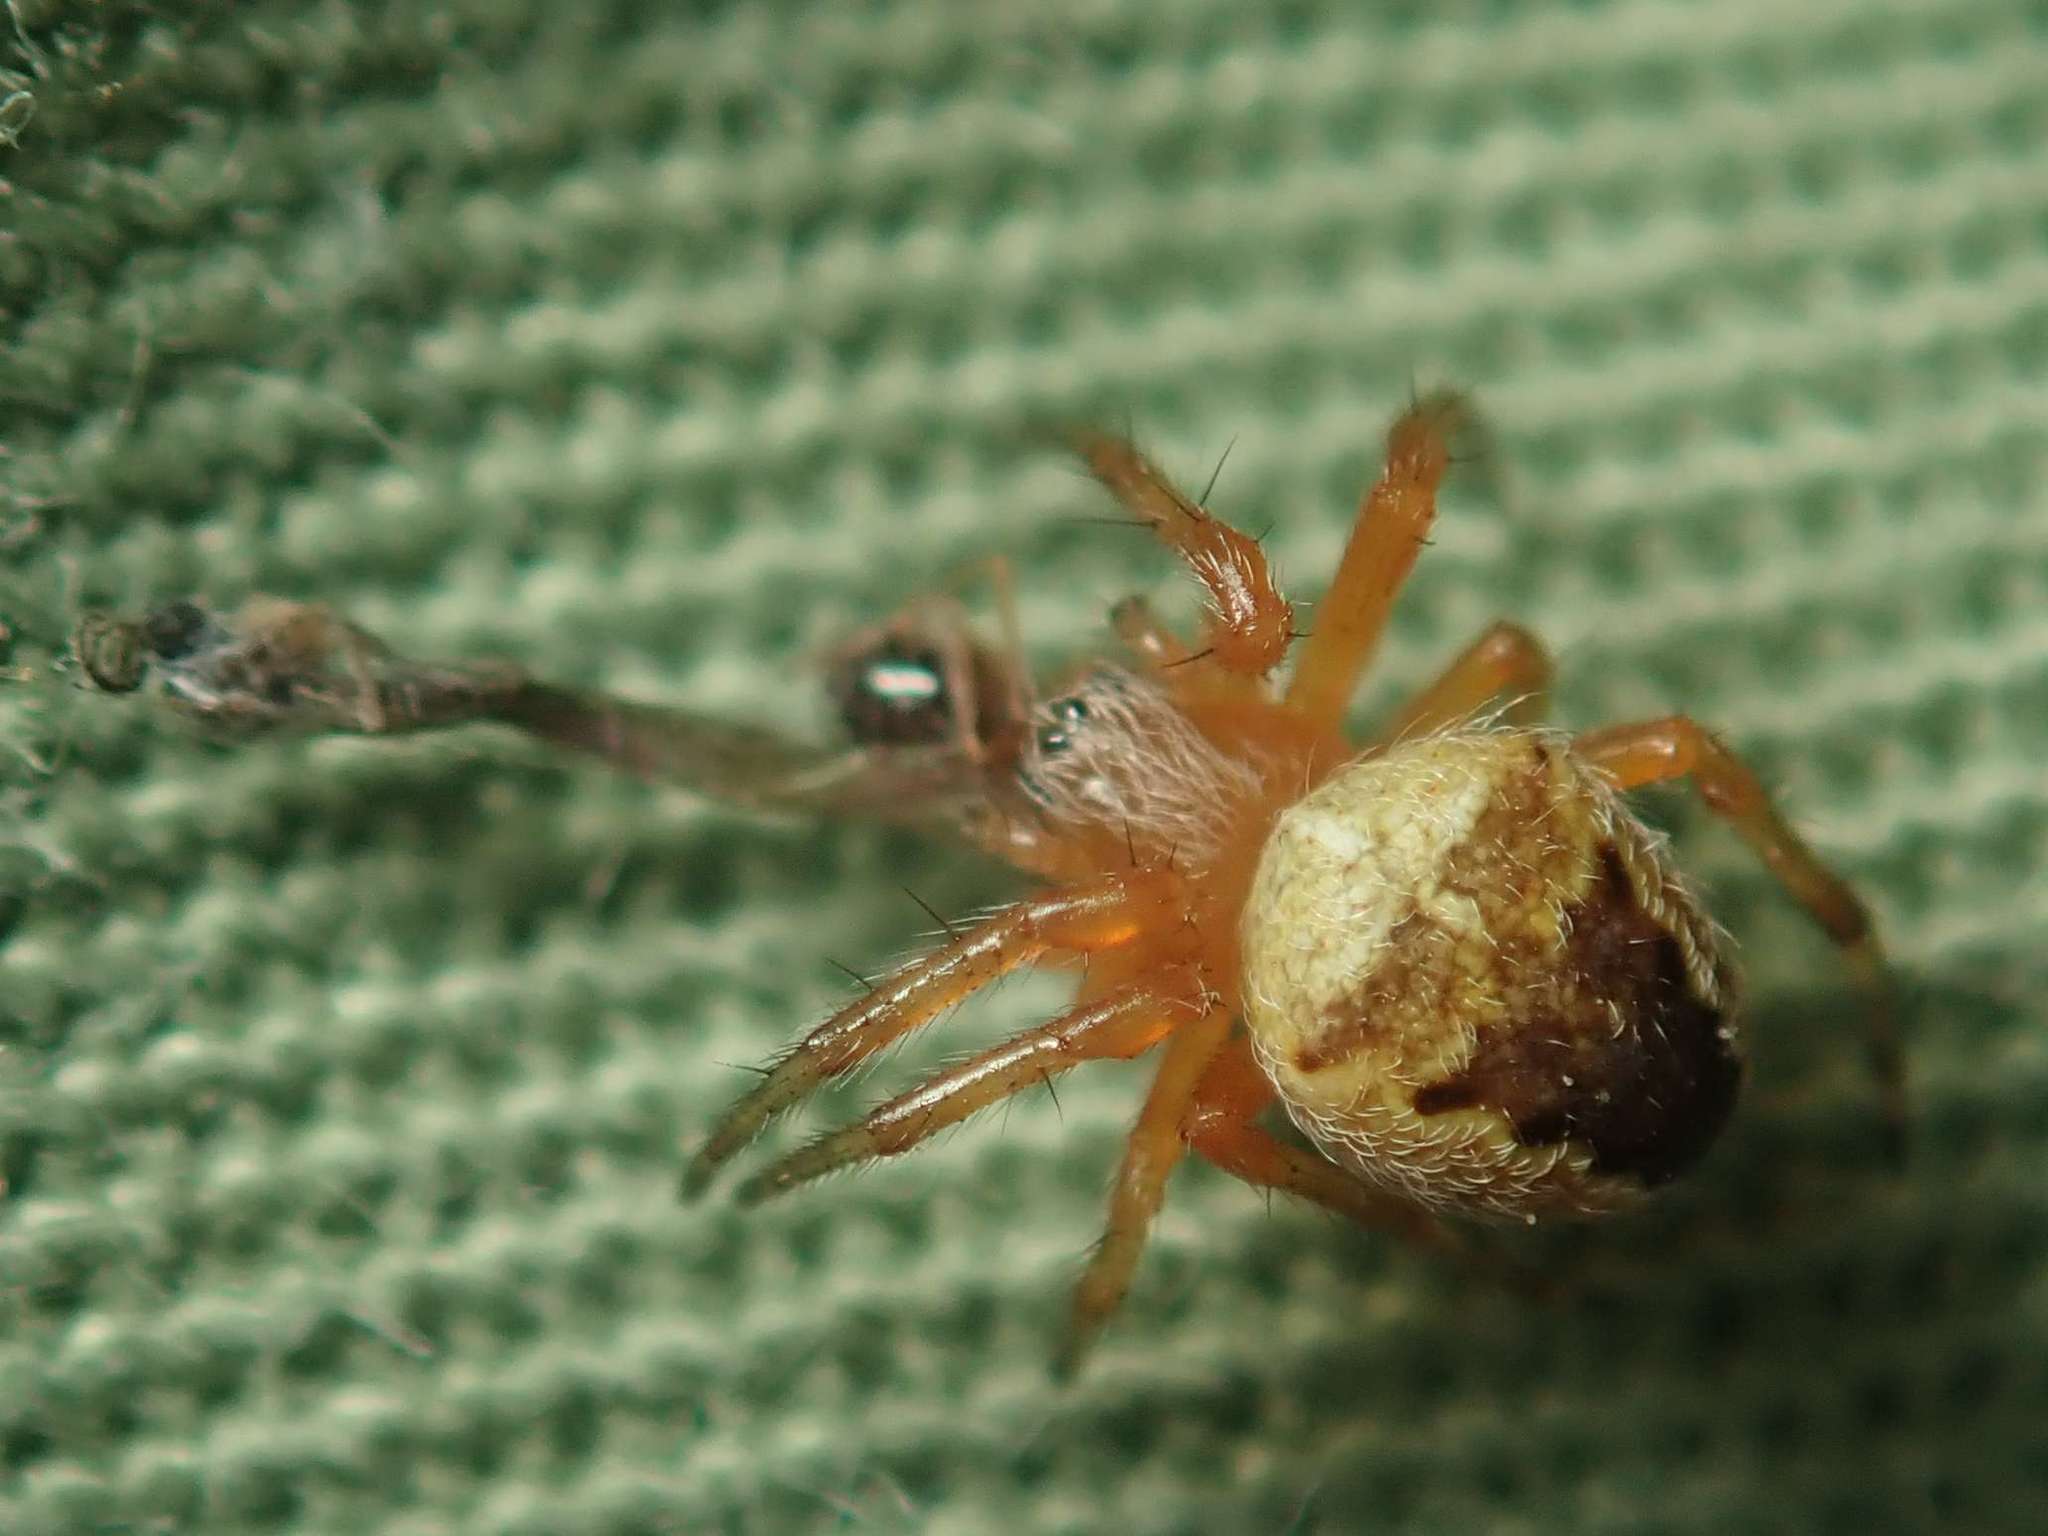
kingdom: Animalia
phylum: Arthropoda
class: Arachnida
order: Araneae
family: Araneidae
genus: Araneus
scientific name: Araneus diadematus
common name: Cross orbweaver
